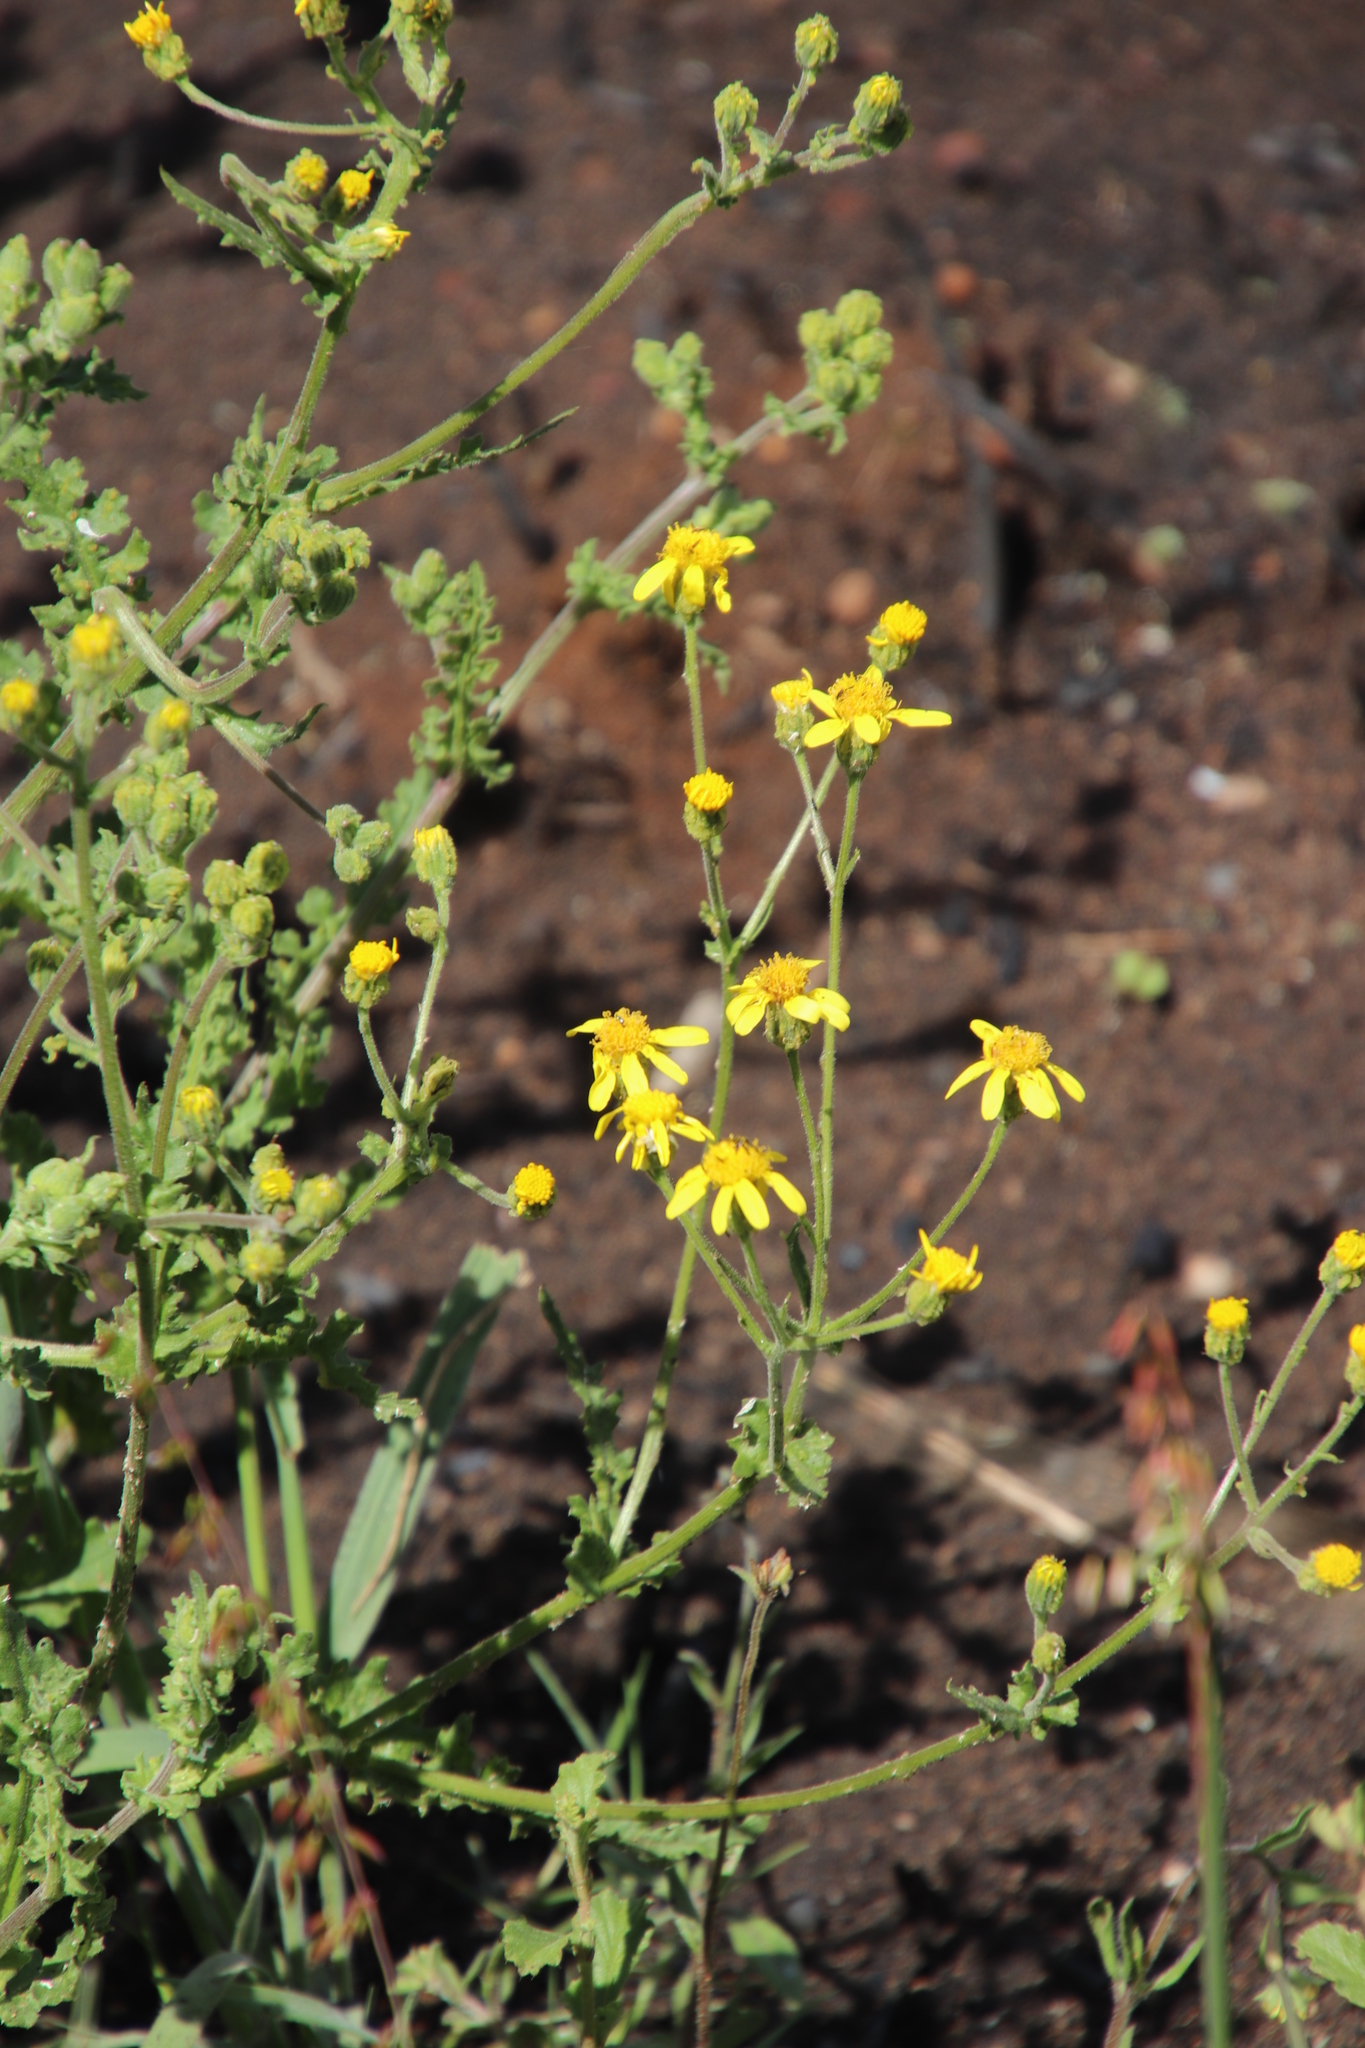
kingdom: Plantae
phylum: Tracheophyta
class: Magnoliopsida
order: Asterales
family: Asteraceae
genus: Senecio
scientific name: Senecio hastatus
